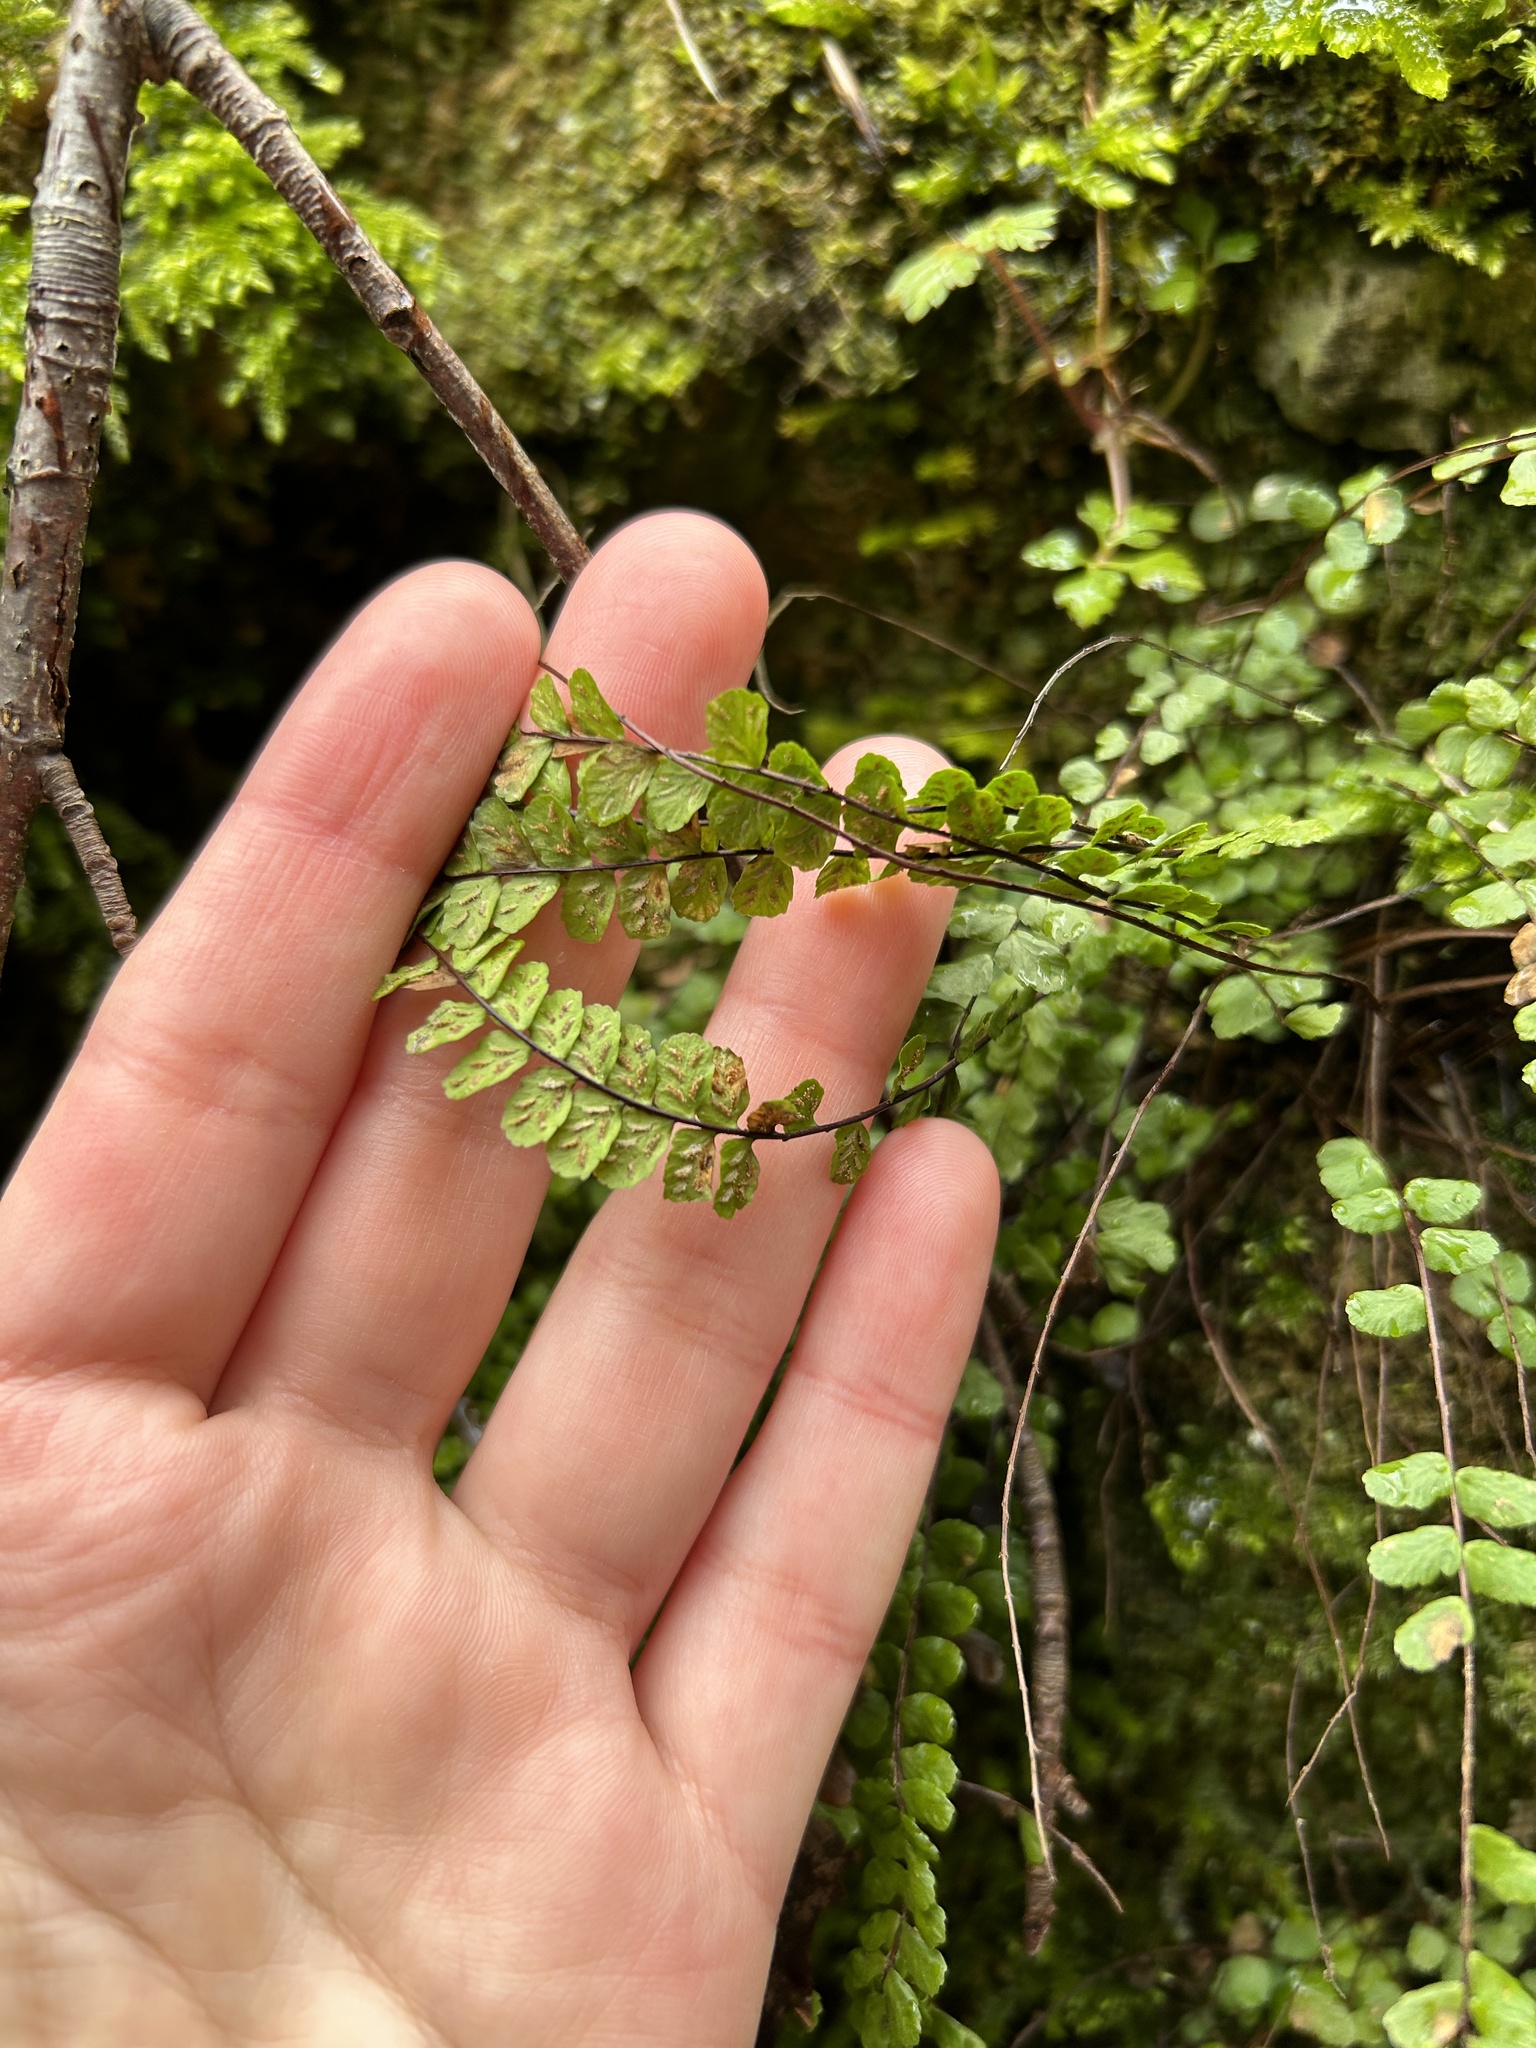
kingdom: Plantae
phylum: Tracheophyta
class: Polypodiopsida
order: Polypodiales
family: Aspleniaceae
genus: Asplenium
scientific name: Asplenium trichomanes
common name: Maidenhair spleenwort
